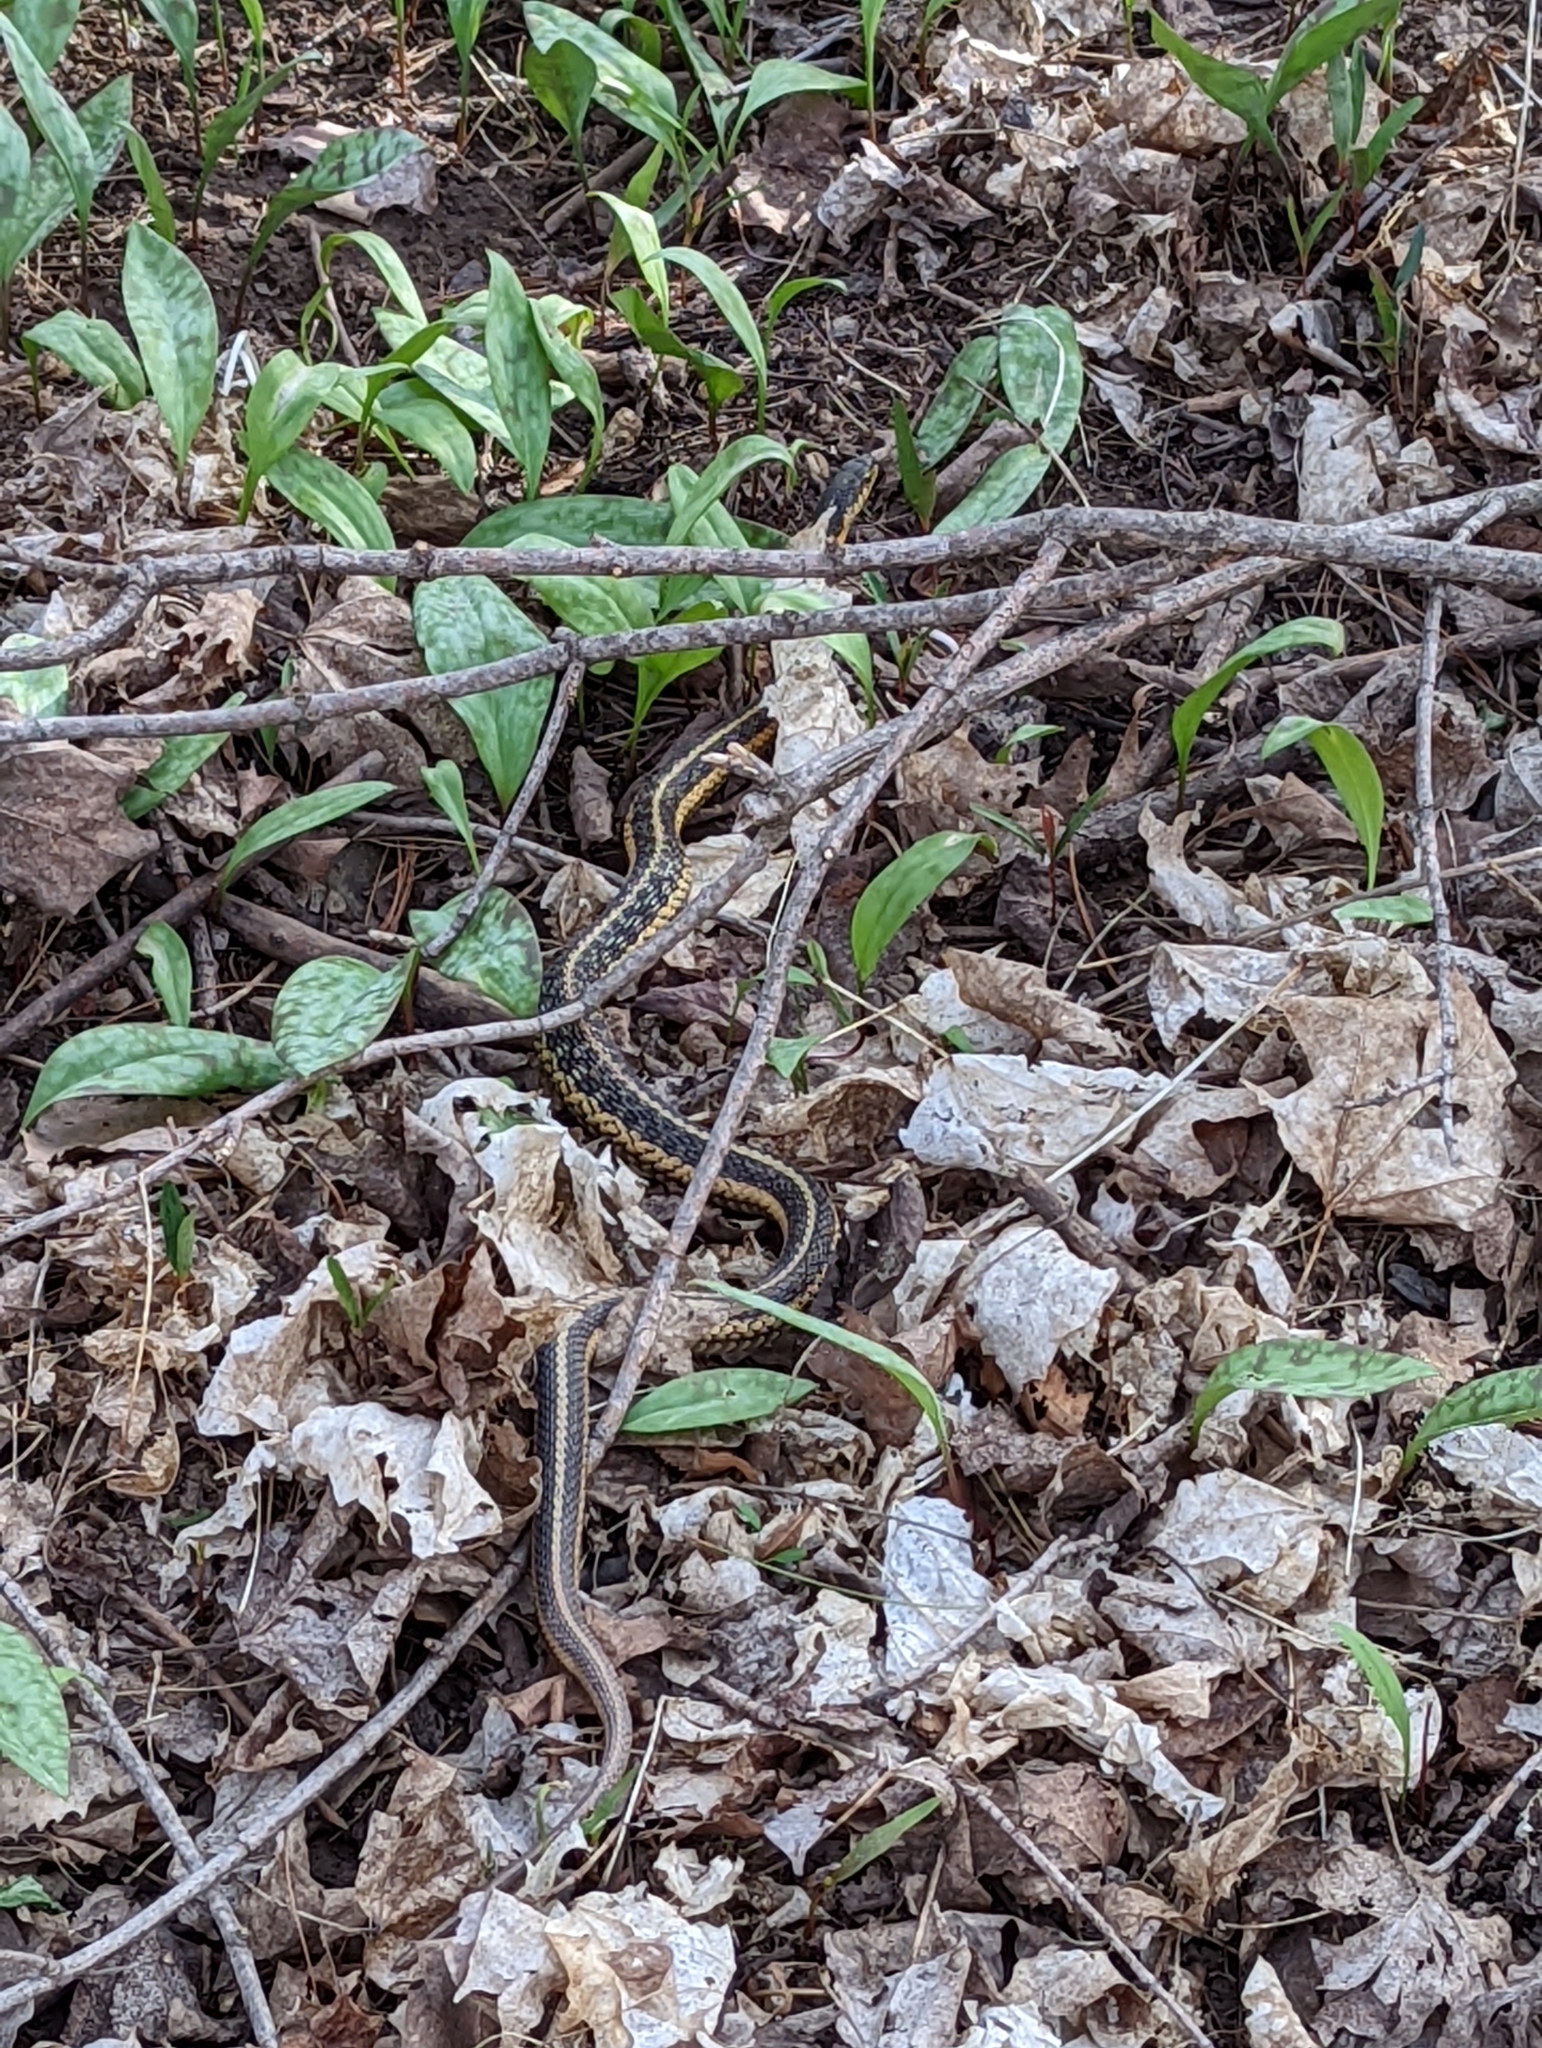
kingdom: Animalia
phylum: Chordata
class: Squamata
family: Colubridae
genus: Thamnophis
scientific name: Thamnophis sirtalis
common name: Common garter snake
